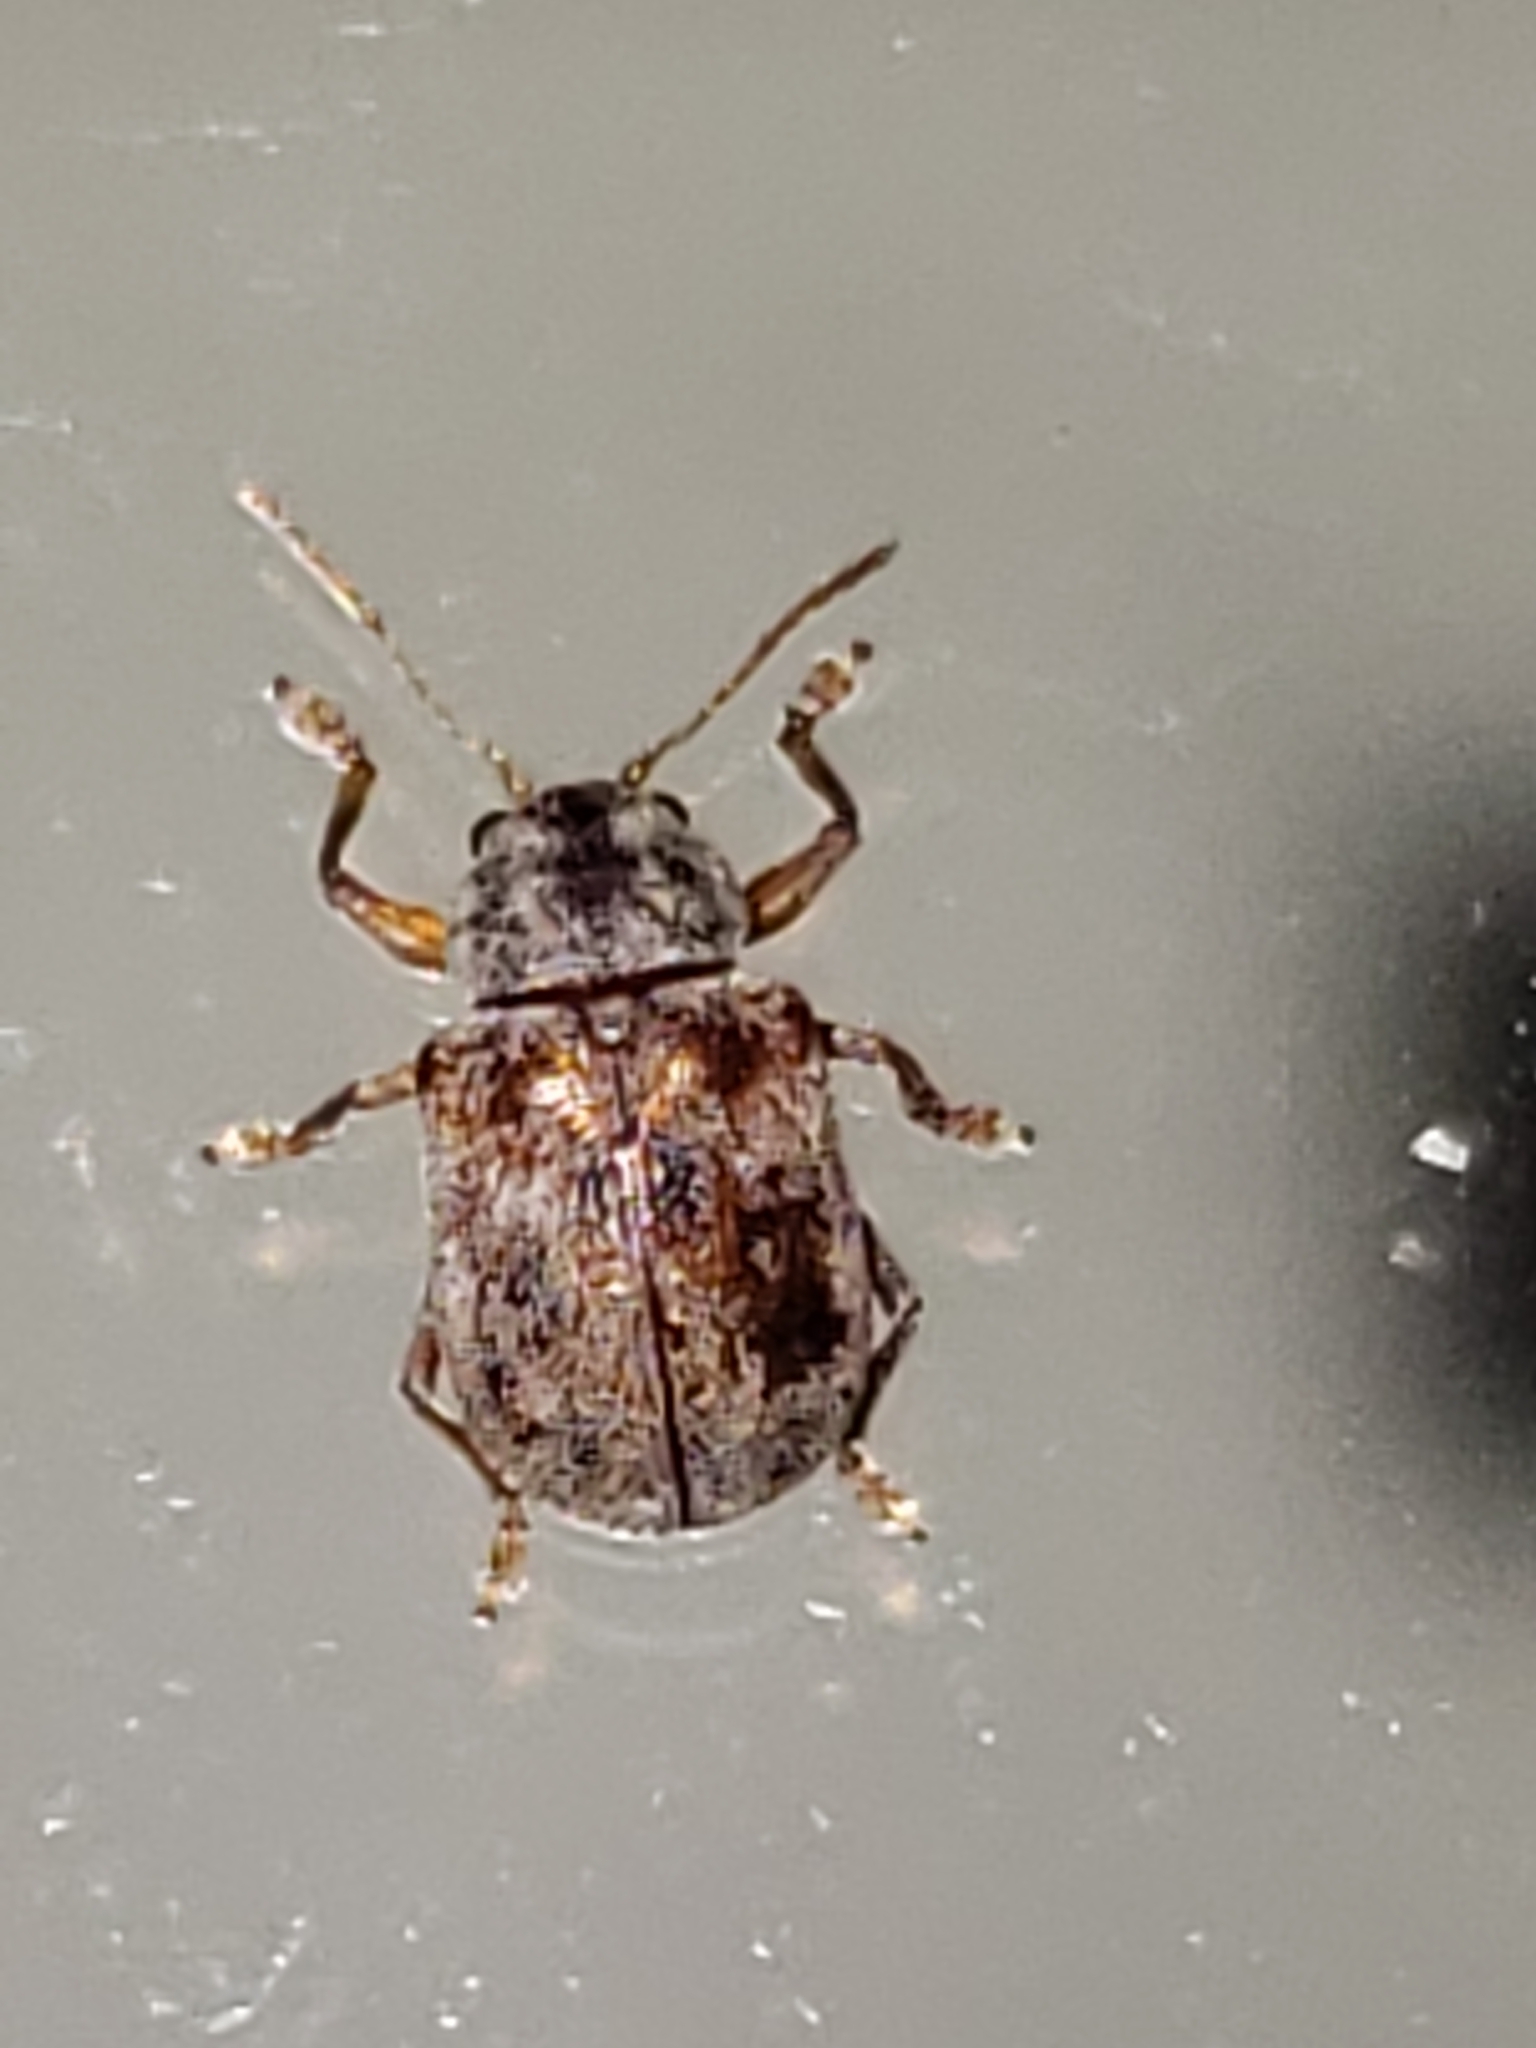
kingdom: Animalia
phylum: Arthropoda
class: Insecta
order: Coleoptera
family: Chrysomelidae
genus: Demotina
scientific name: Demotina modesta
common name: Leaf beetle
